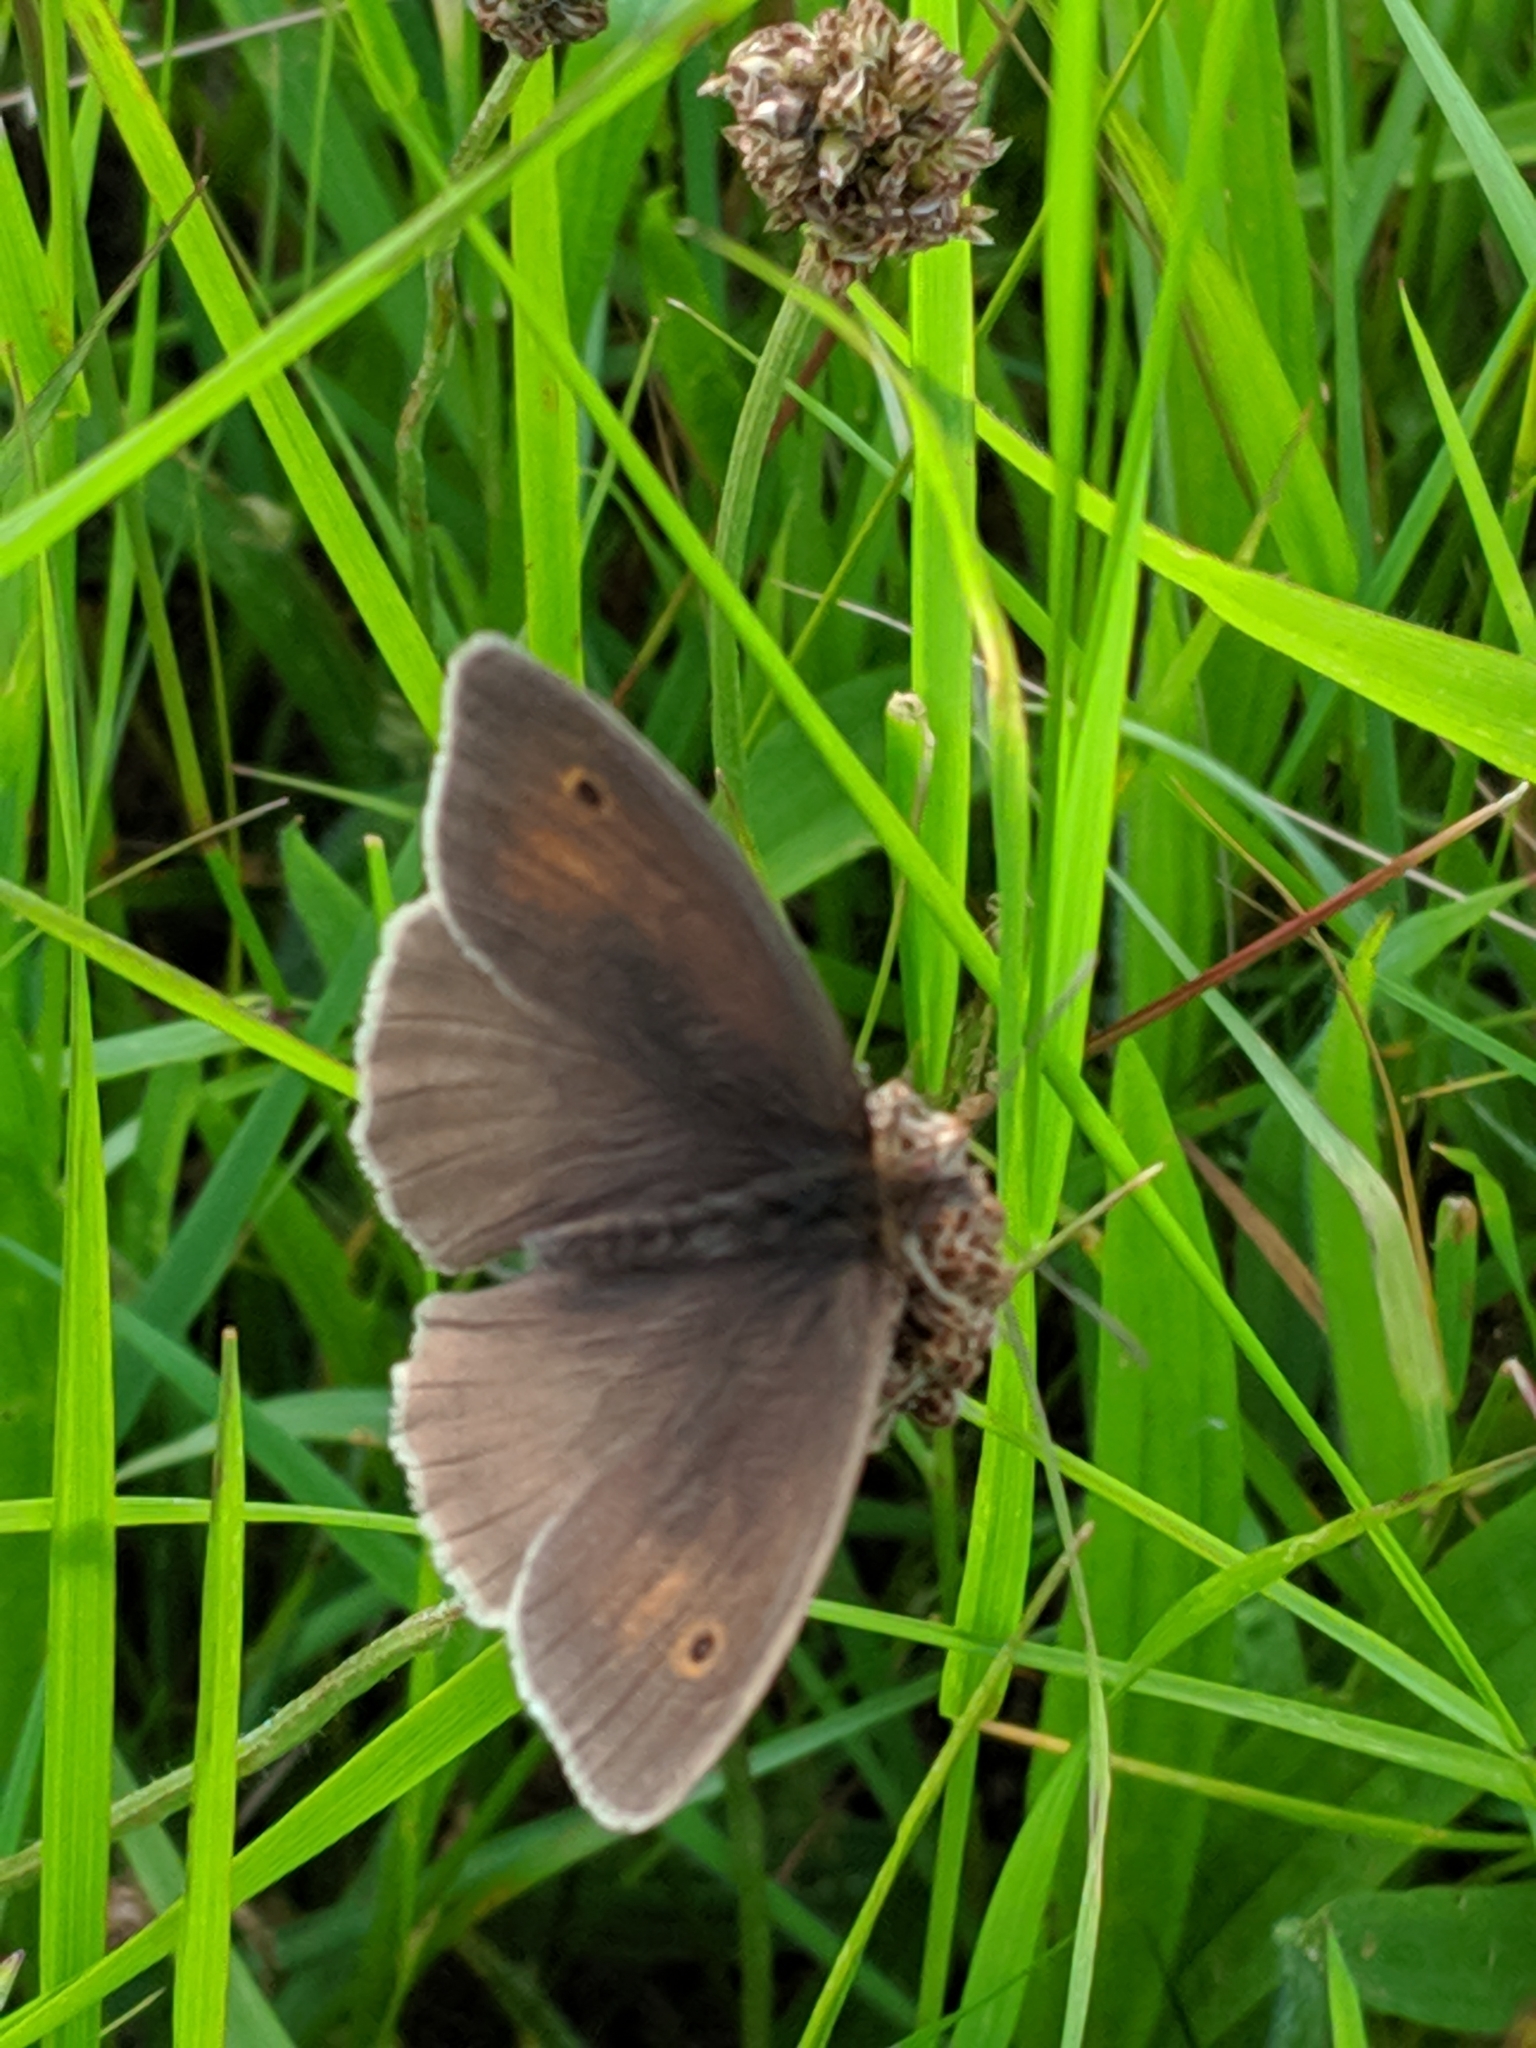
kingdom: Animalia
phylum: Arthropoda
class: Insecta
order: Lepidoptera
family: Nymphalidae
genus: Maniola
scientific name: Maniola jurtina
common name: Meadow brown
